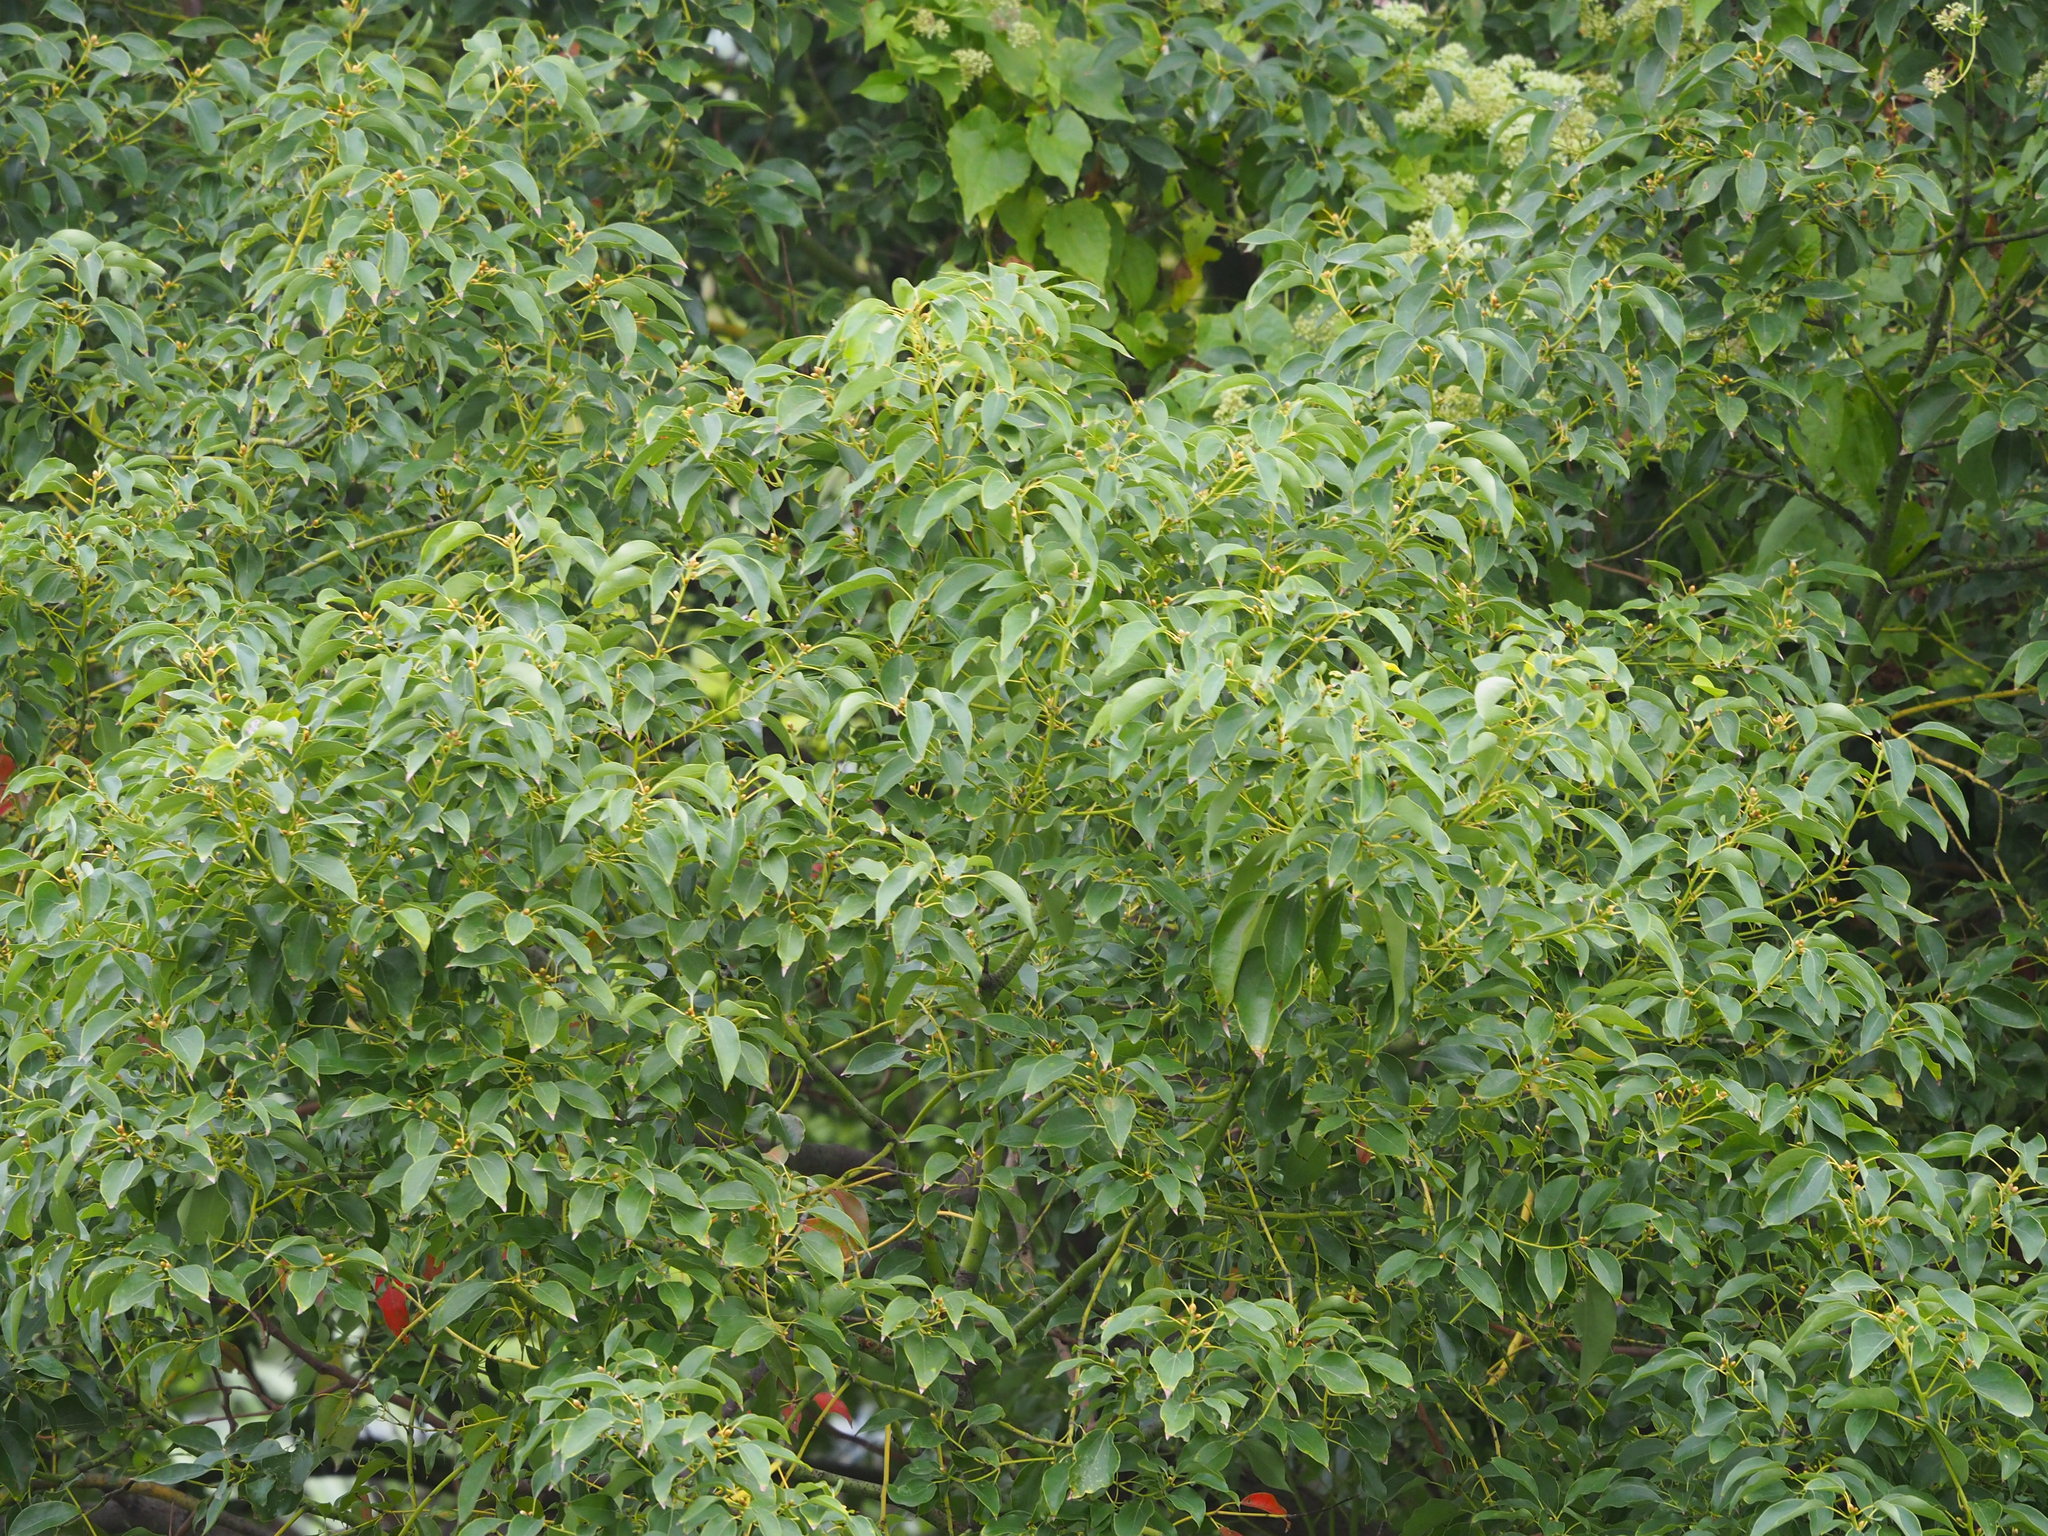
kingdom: Plantae
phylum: Tracheophyta
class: Magnoliopsida
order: Laurales
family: Lauraceae
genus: Cinnamomum
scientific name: Cinnamomum camphora
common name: Camphortree
